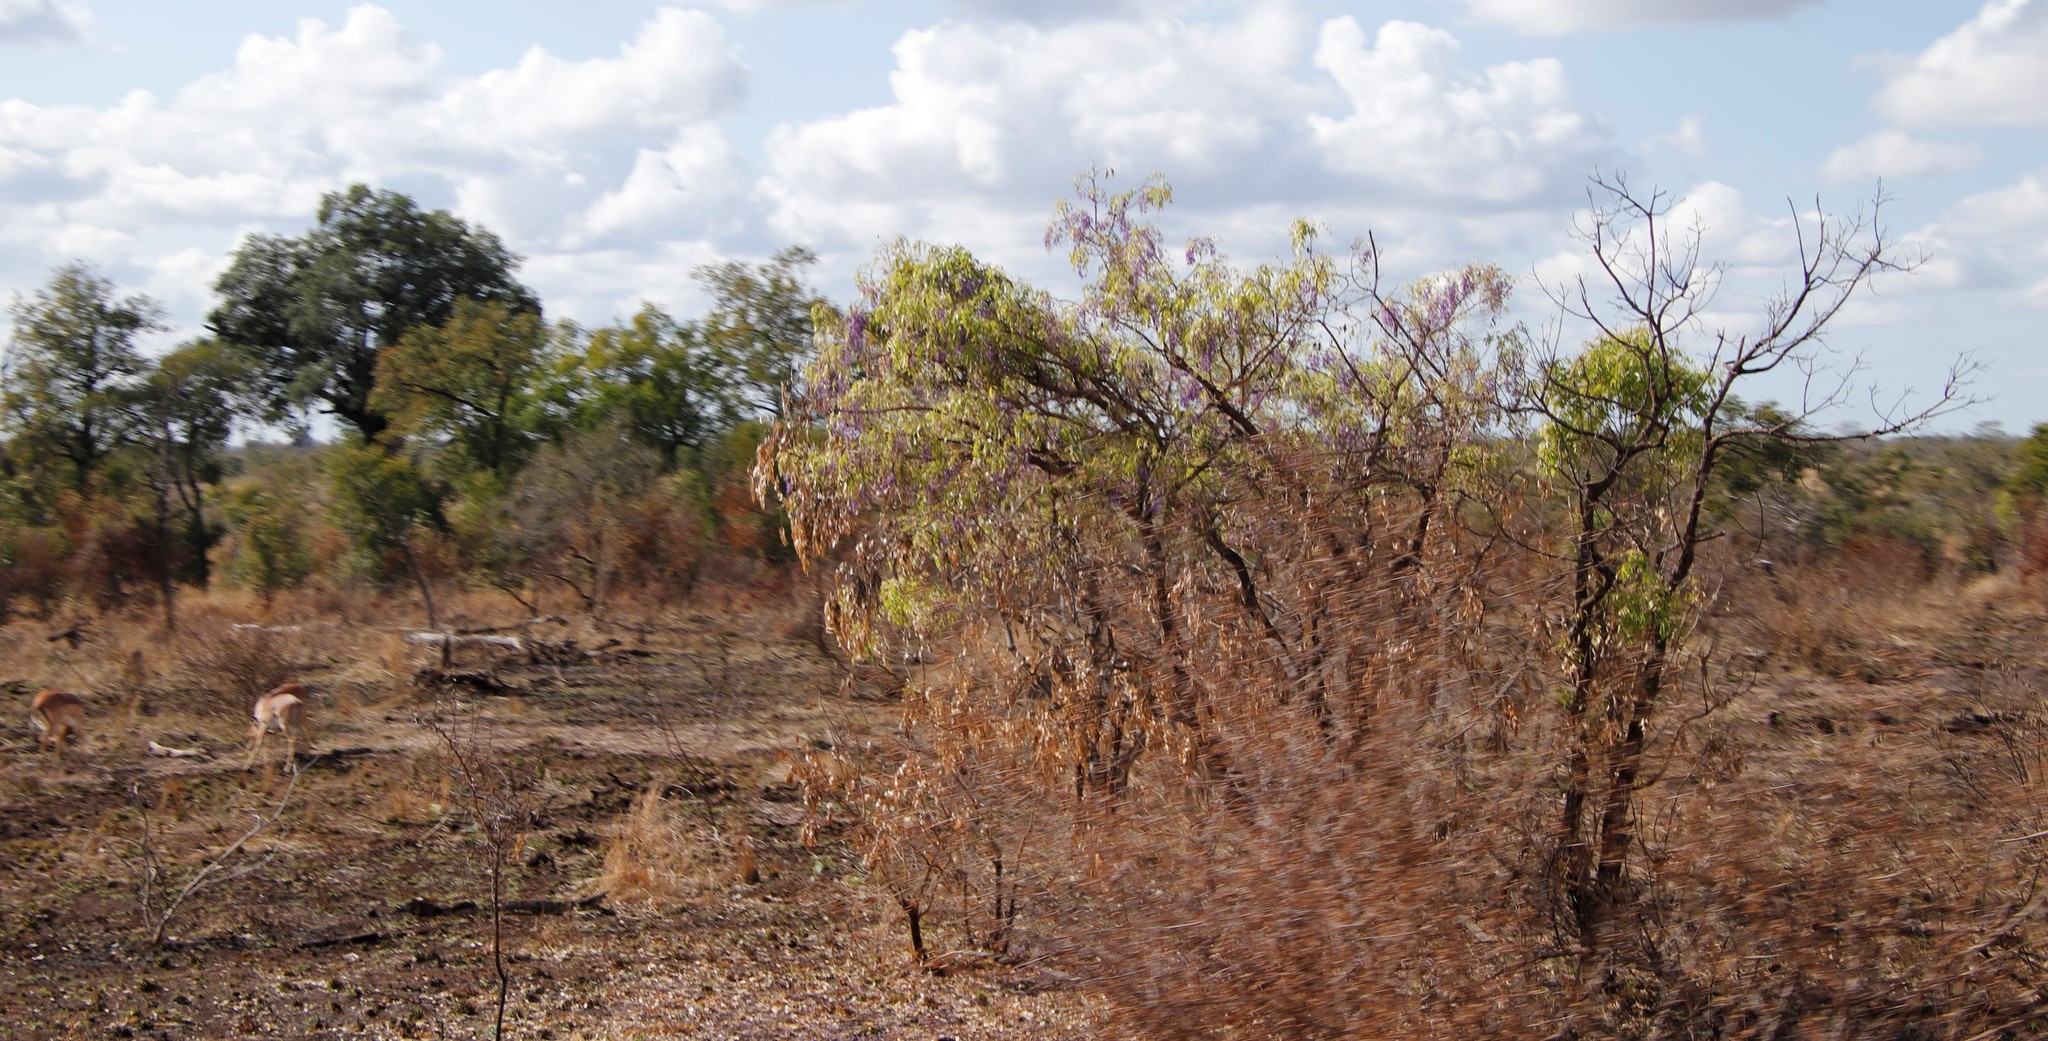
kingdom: Plantae
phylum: Tracheophyta
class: Magnoliopsida
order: Fabales
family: Fabaceae
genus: Bolusanthus
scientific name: Bolusanthus speciosus
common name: Tree wisteria
